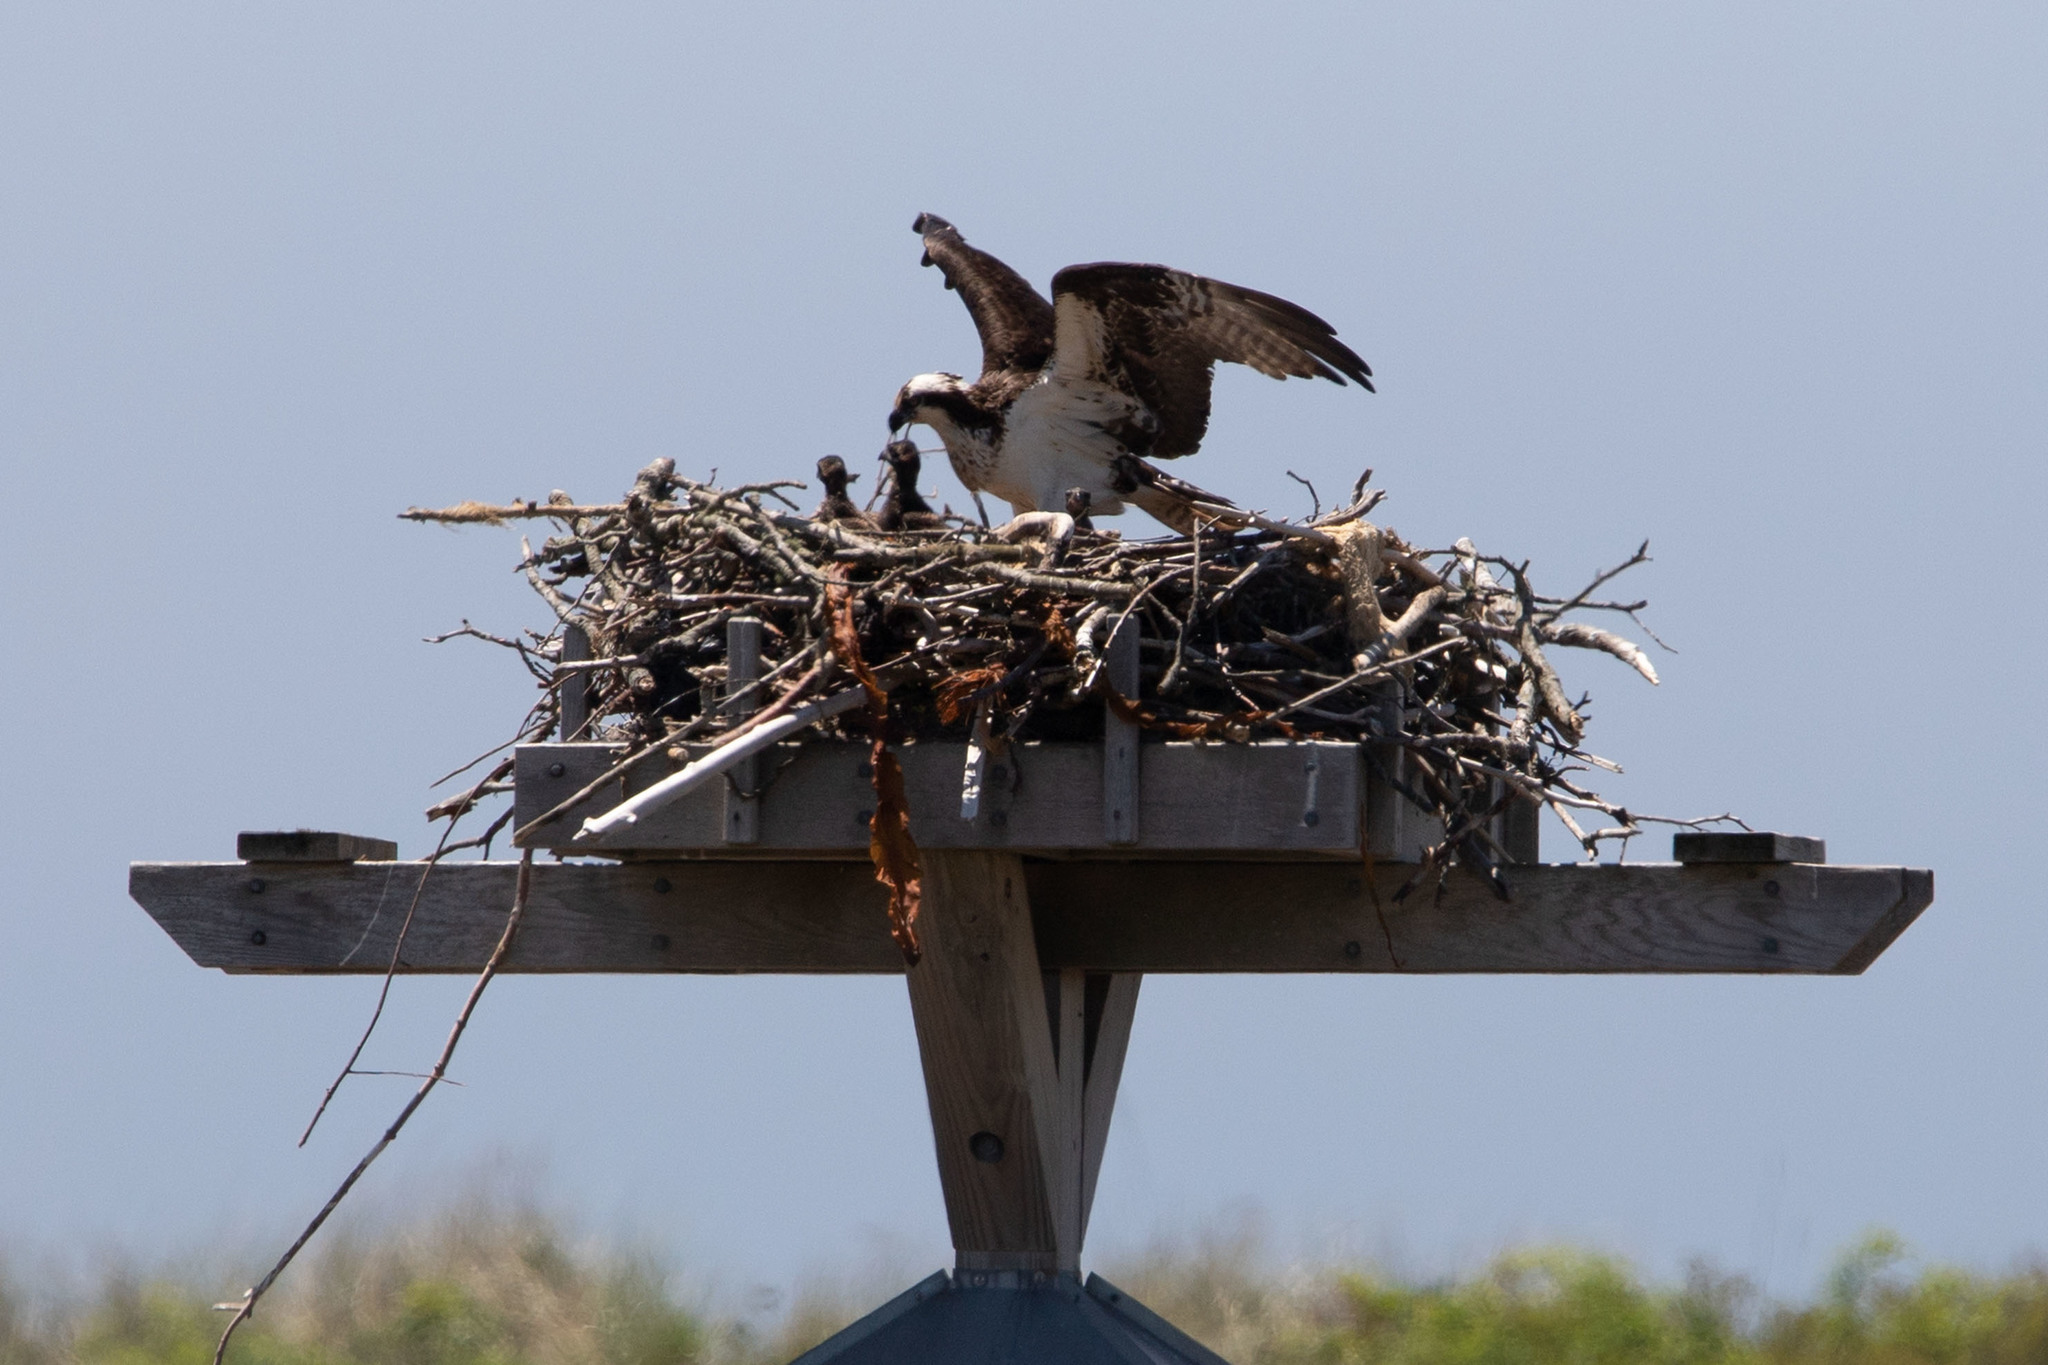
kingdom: Animalia
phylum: Chordata
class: Aves
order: Accipitriformes
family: Pandionidae
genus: Pandion
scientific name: Pandion haliaetus
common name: Osprey
